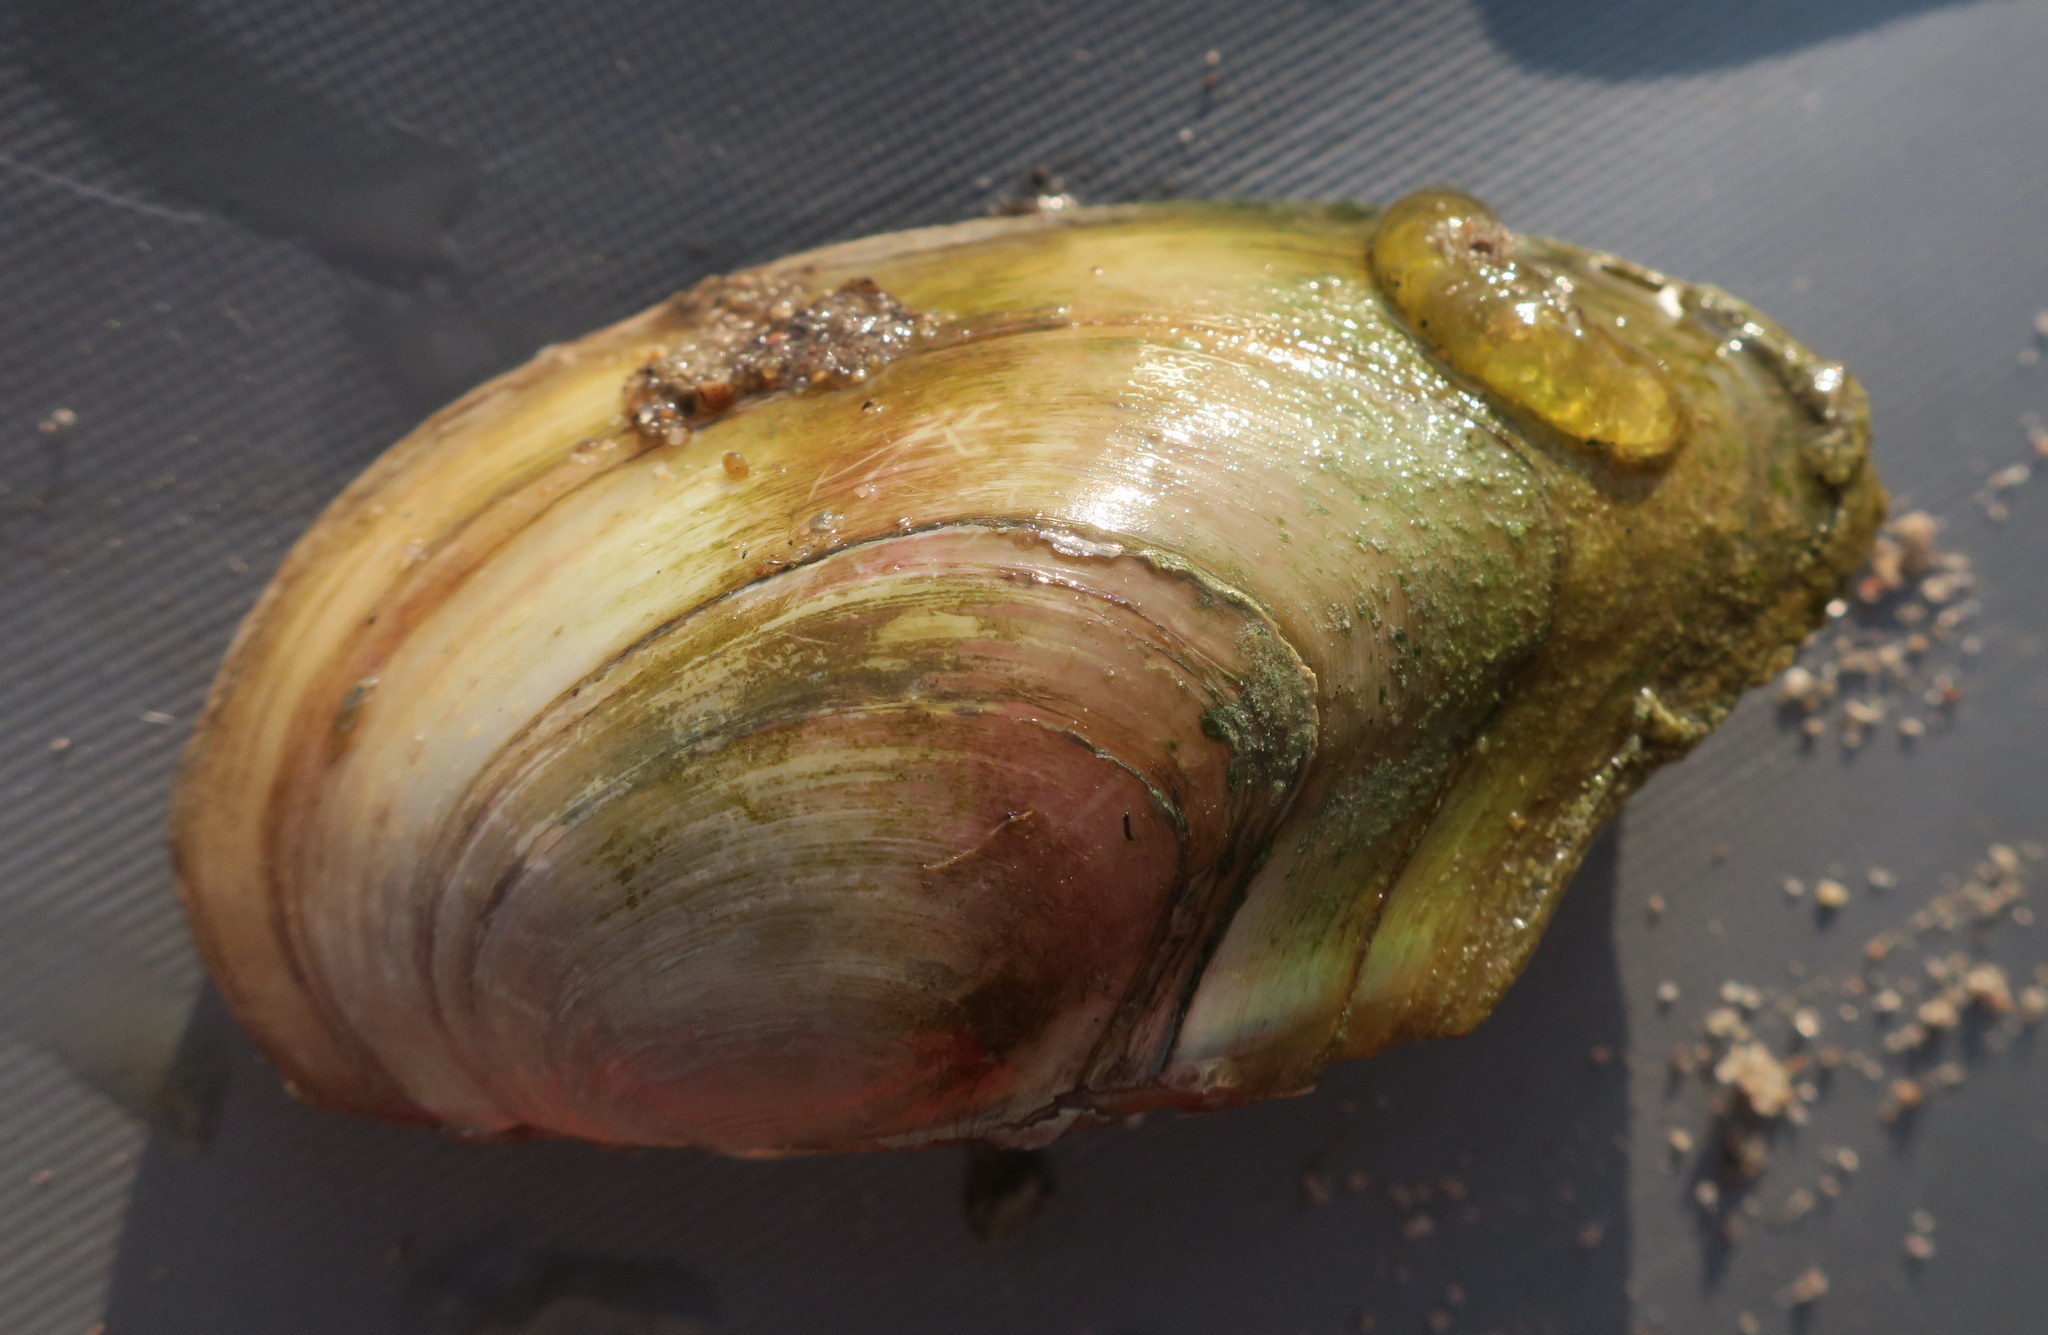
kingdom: Animalia
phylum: Mollusca
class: Bivalvia
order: Unionida
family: Unionidae
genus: Anodonta
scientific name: Anodonta anatina
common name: Duck mussel
